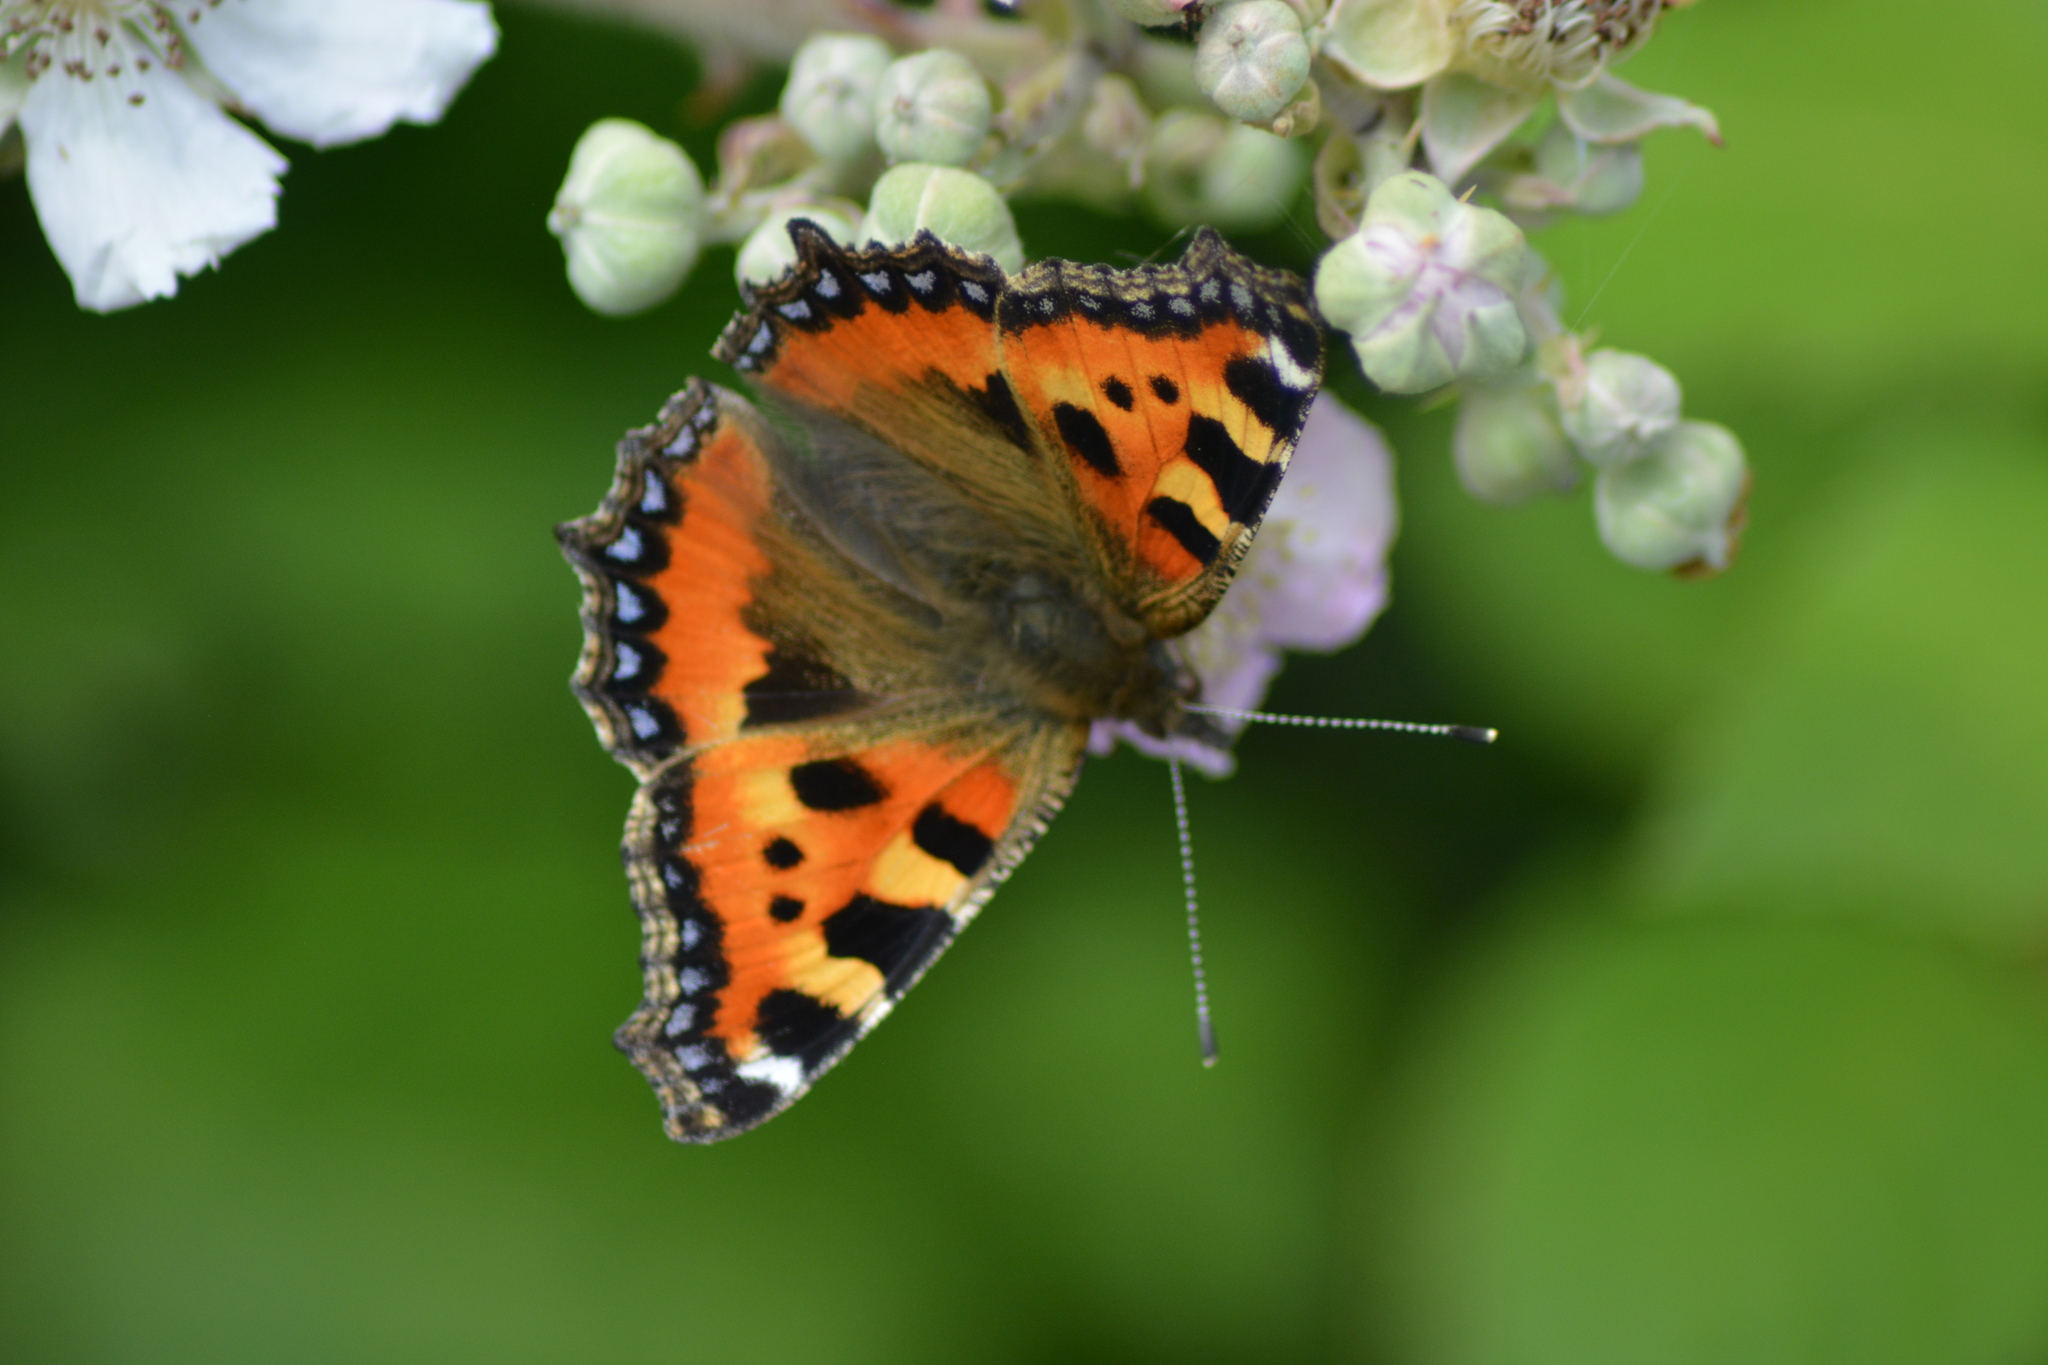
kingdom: Animalia
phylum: Arthropoda
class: Insecta
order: Lepidoptera
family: Nymphalidae
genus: Aglais
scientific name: Aglais urticae
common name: Small tortoiseshell
